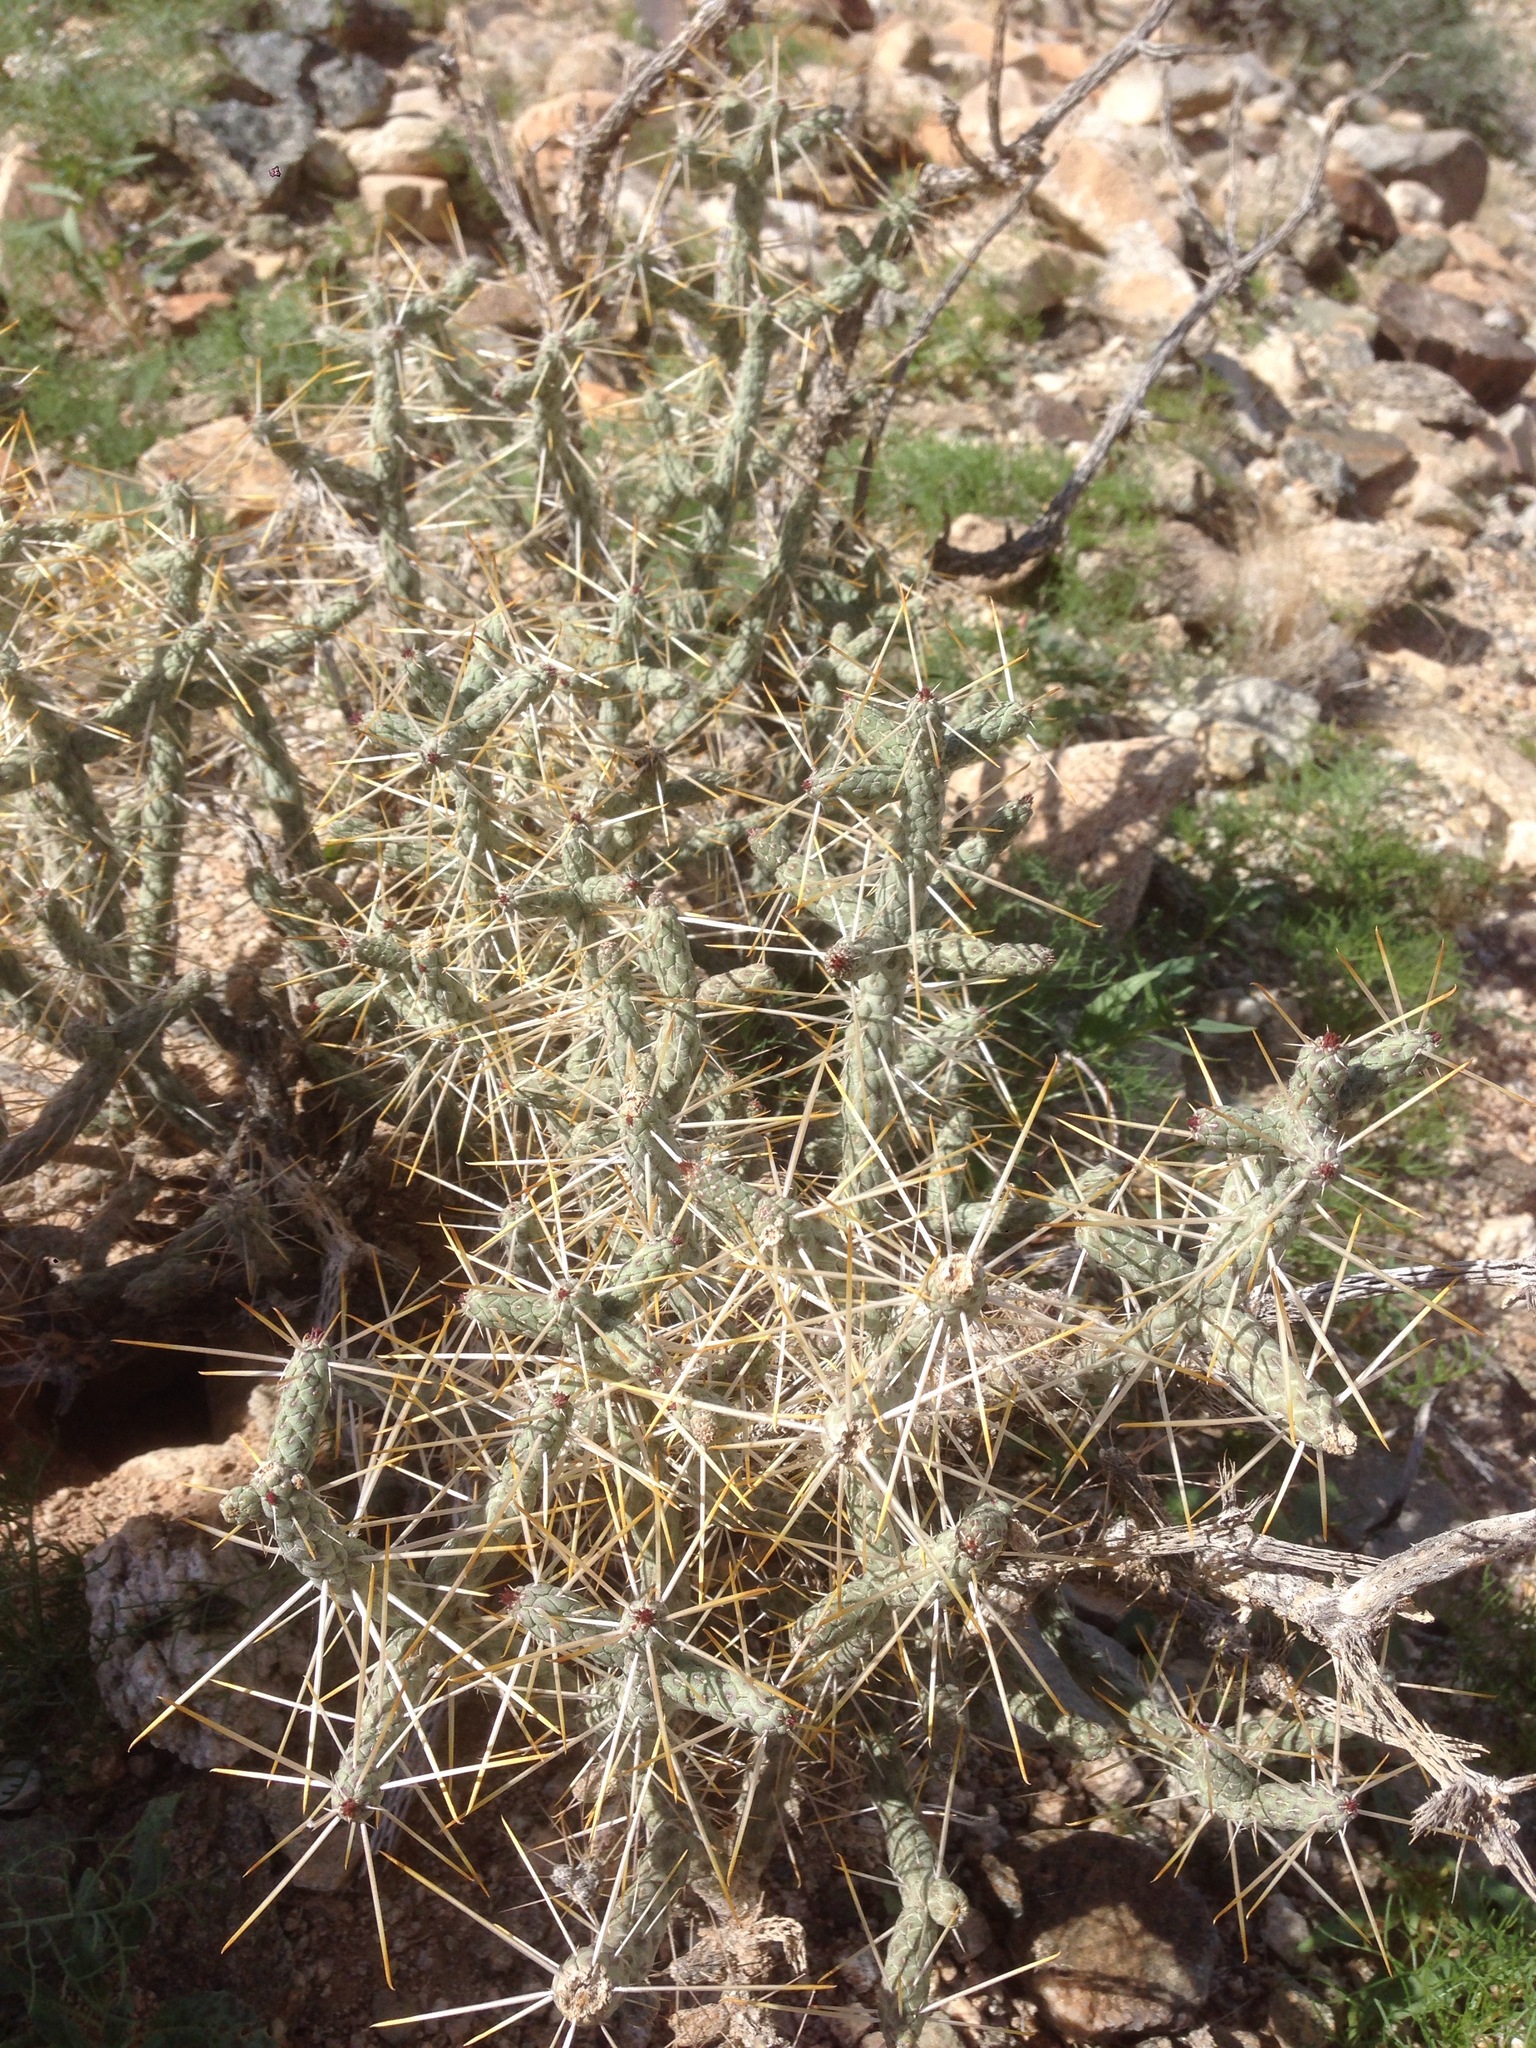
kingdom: Plantae
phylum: Tracheophyta
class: Magnoliopsida
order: Caryophyllales
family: Cactaceae
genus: Cylindropuntia
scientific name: Cylindropuntia ramosissima
